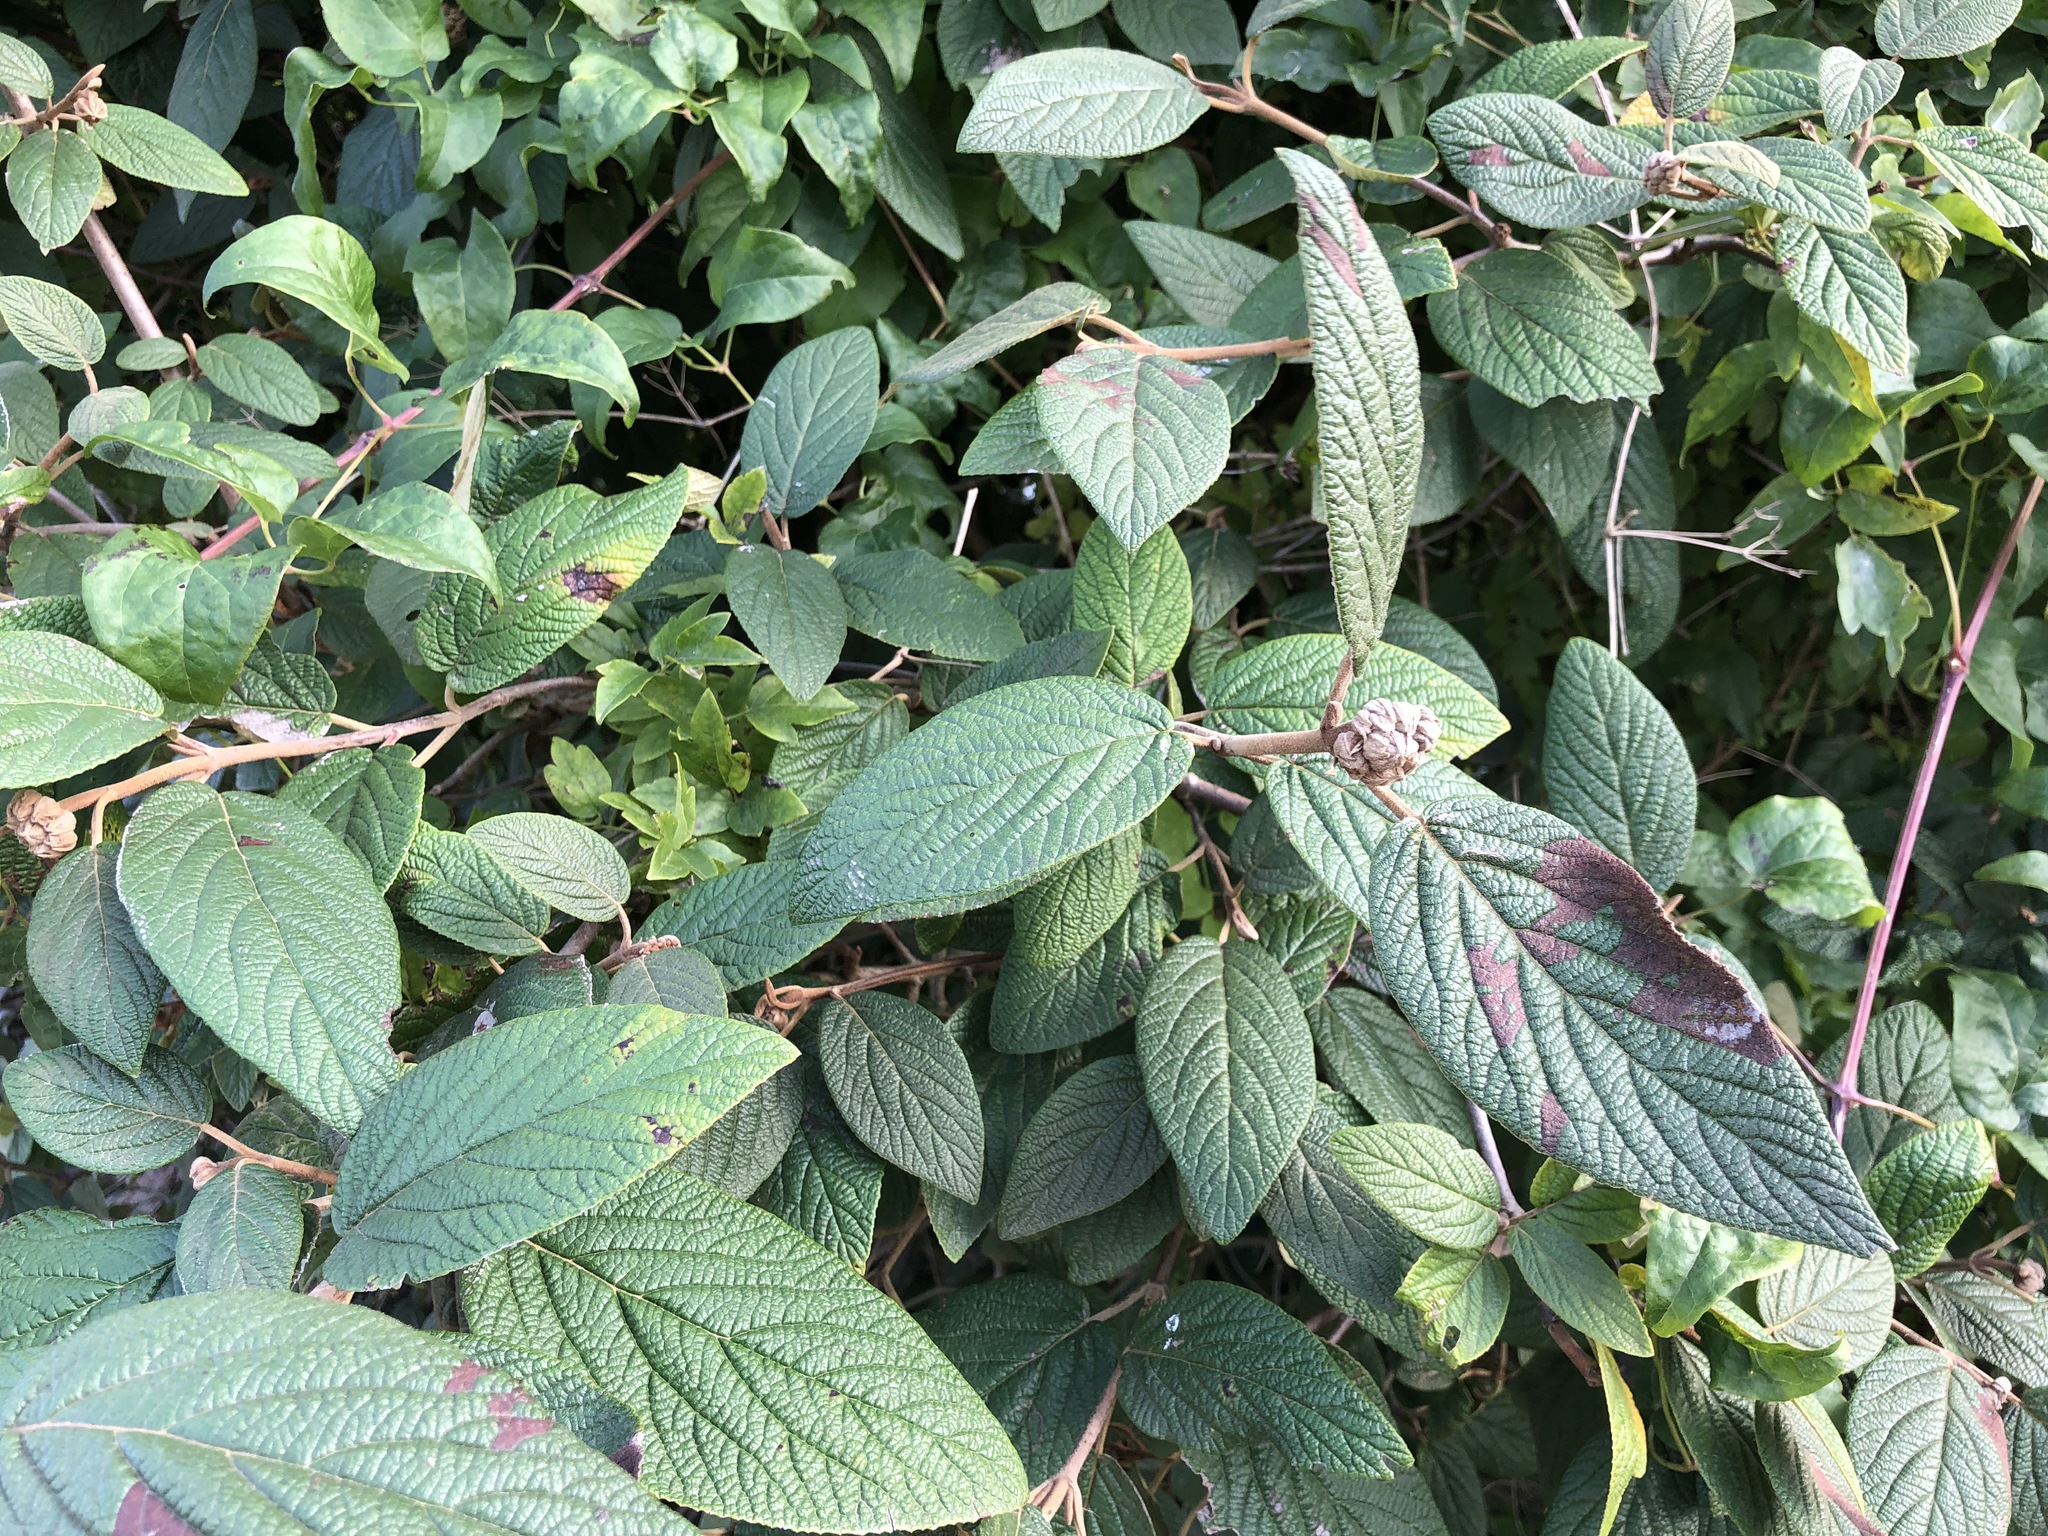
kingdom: Plantae
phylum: Tracheophyta
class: Magnoliopsida
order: Dipsacales
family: Viburnaceae
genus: Viburnum
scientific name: Viburnum rhytidophyllum
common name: Wrinkled viburnum
